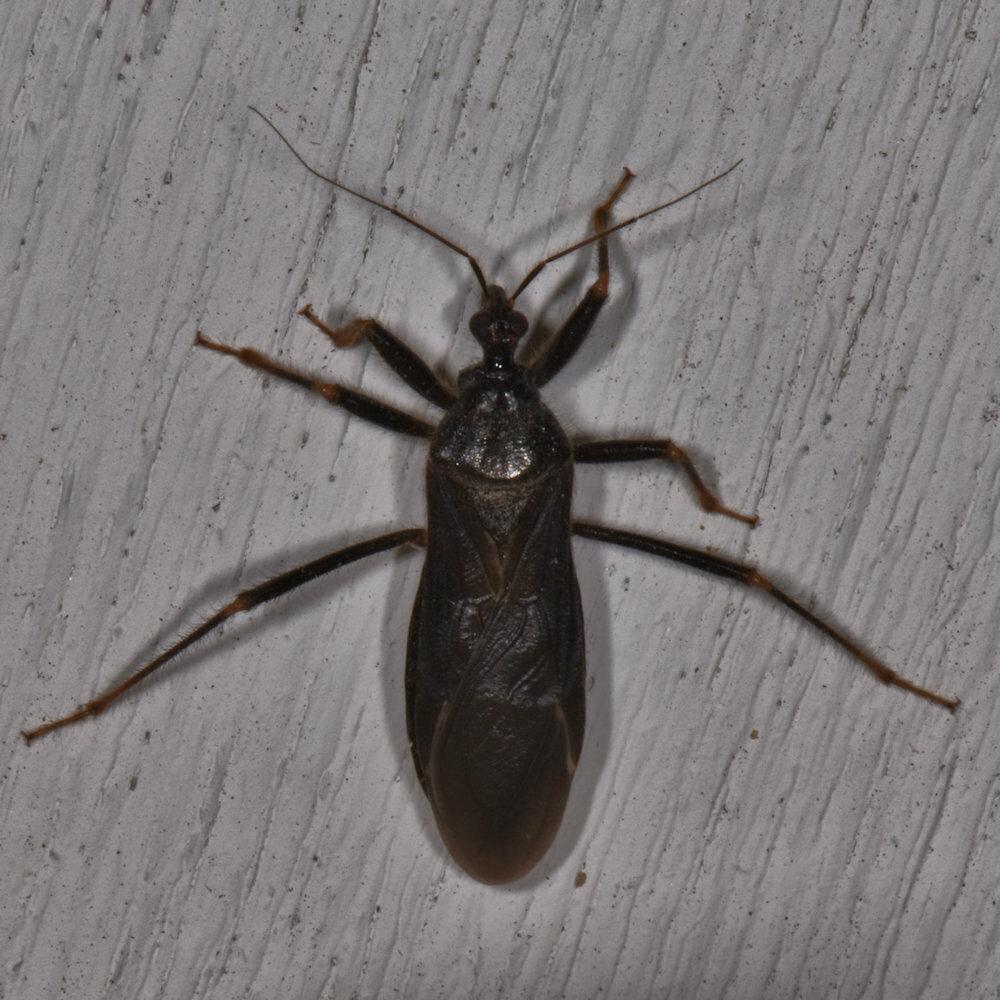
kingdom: Animalia
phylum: Arthropoda
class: Insecta
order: Hemiptera
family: Reduviidae
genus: Reduvius
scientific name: Reduvius personatus
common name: Masked hunter
